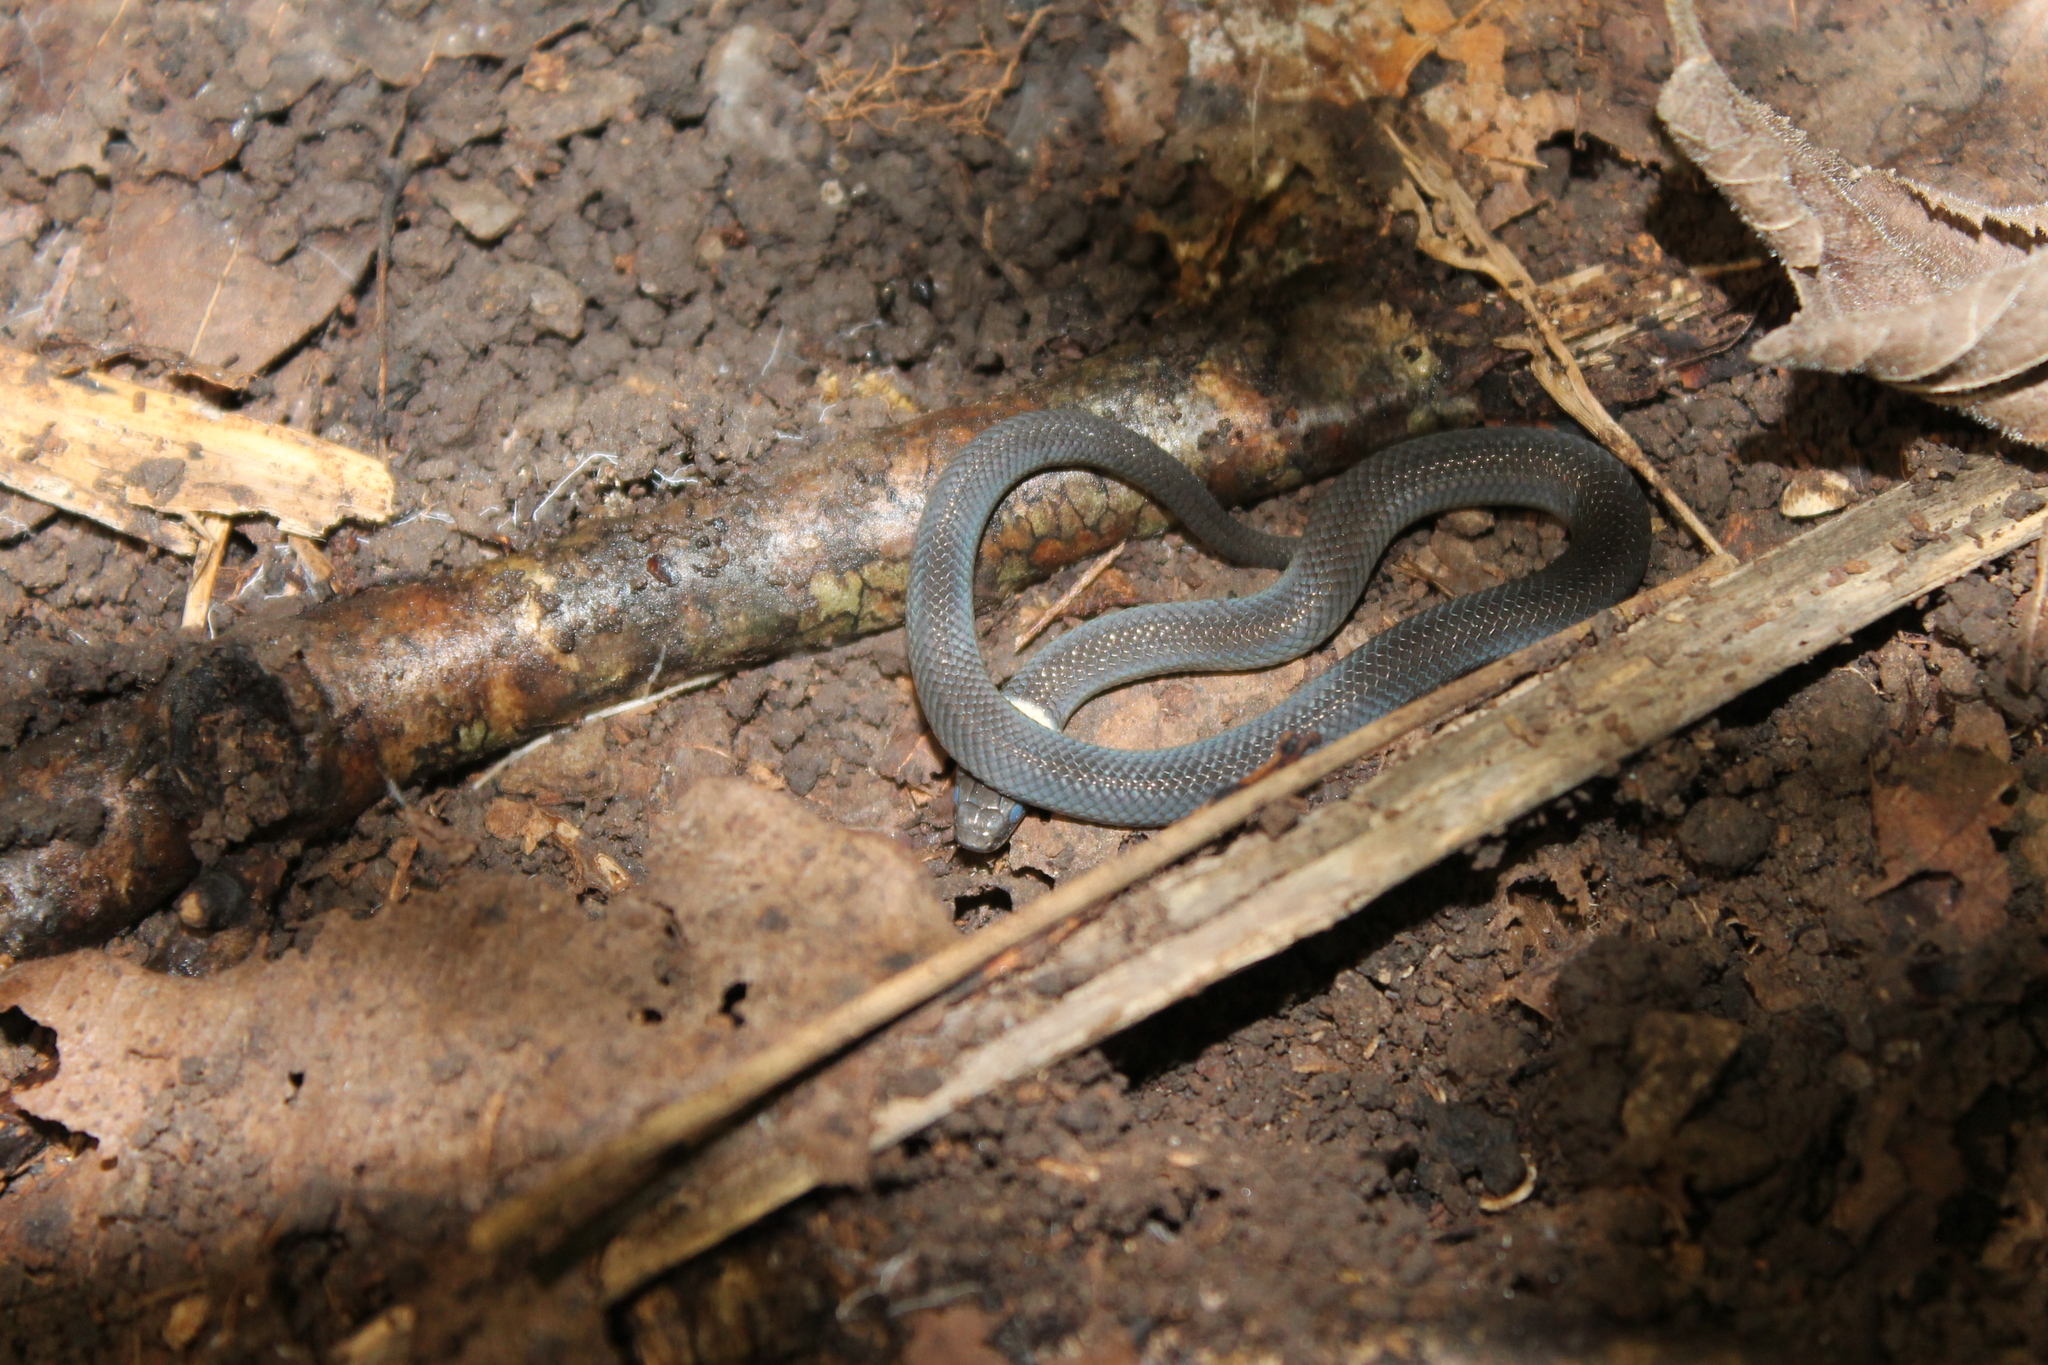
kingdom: Animalia
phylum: Chordata
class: Squamata
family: Colubridae
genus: Diadophis
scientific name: Diadophis punctatus
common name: Ringneck snake
